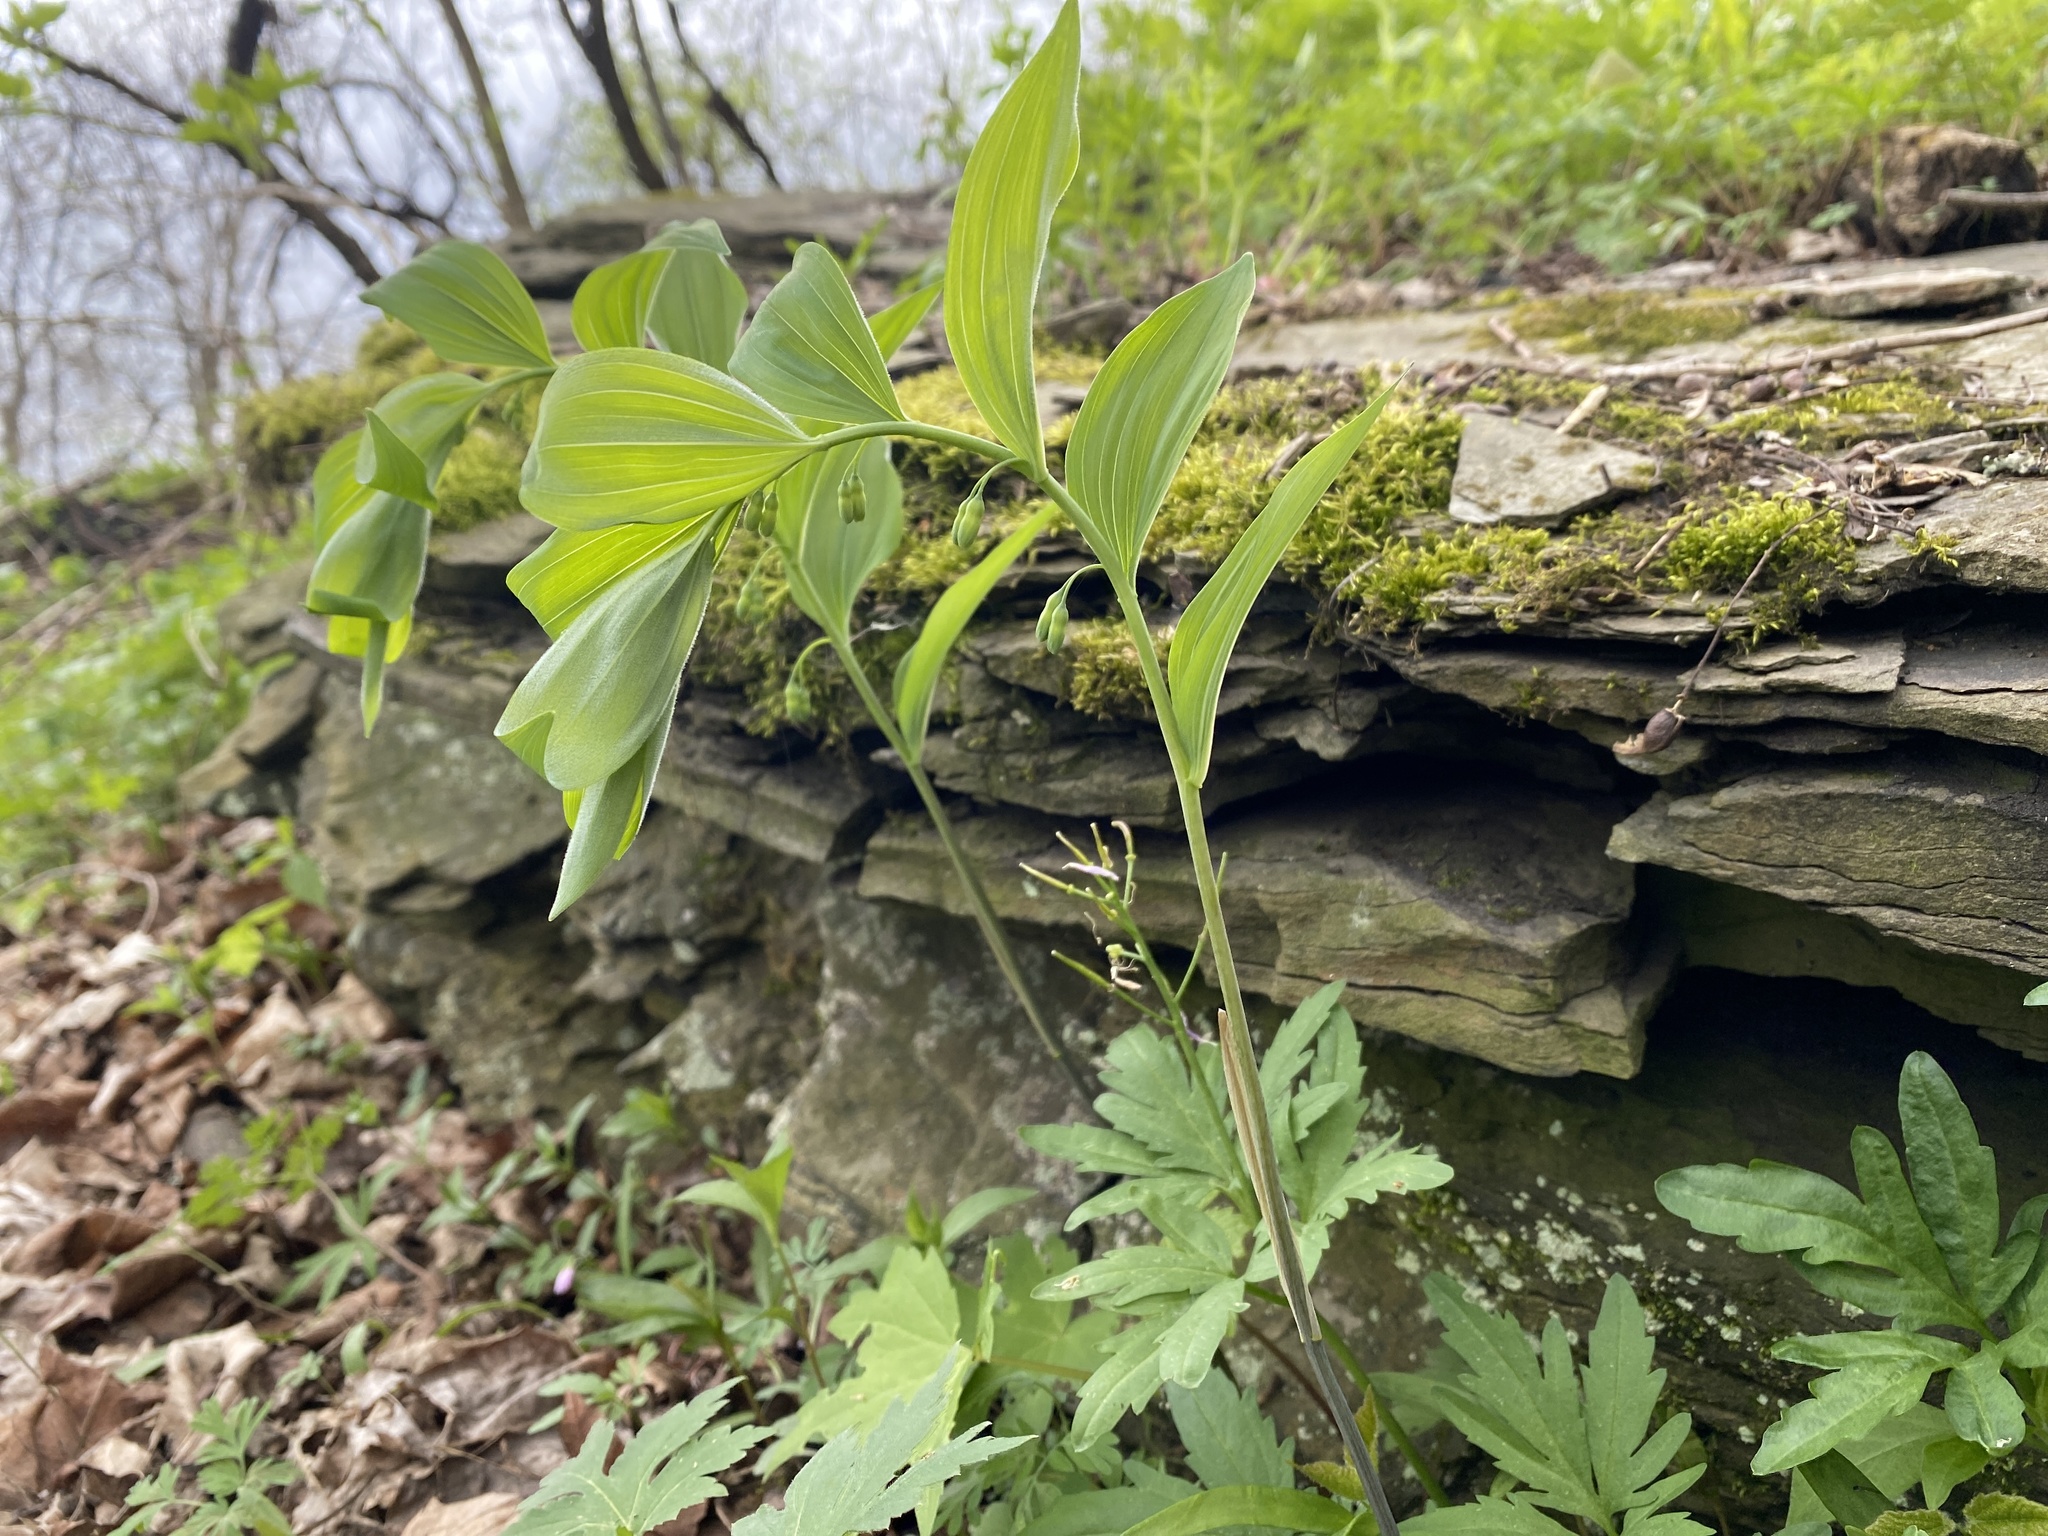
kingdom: Plantae
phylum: Tracheophyta
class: Liliopsida
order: Asparagales
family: Asparagaceae
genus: Polygonatum
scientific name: Polygonatum pubescens
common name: Downy solomon's seal
